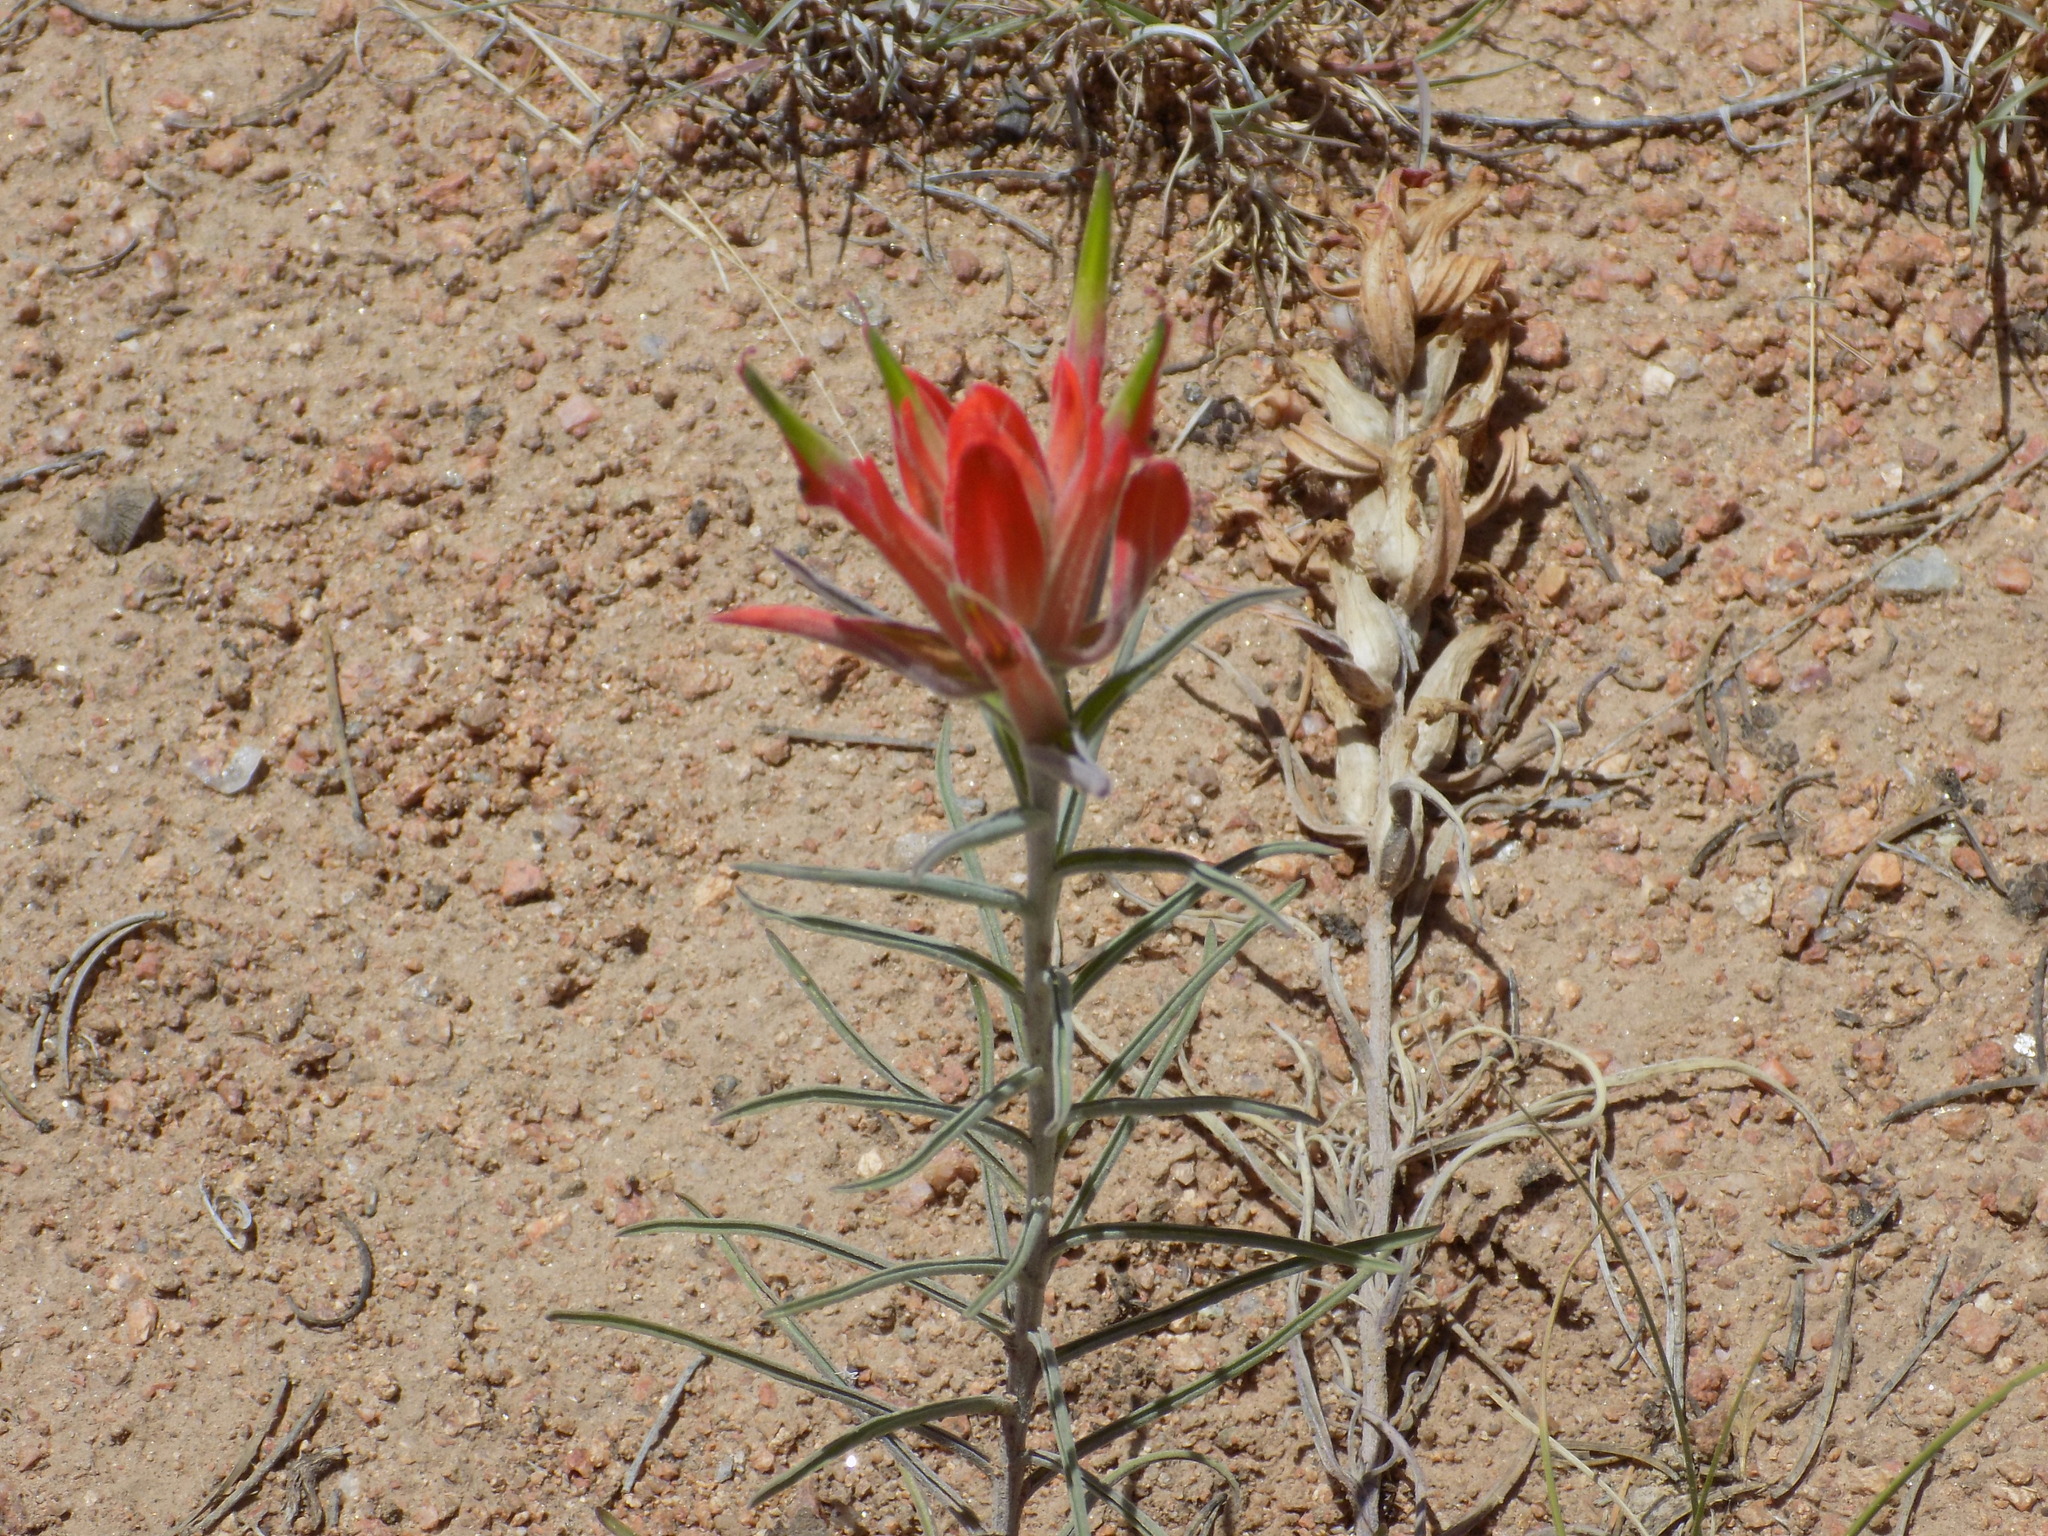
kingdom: Plantae
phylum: Tracheophyta
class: Magnoliopsida
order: Lamiales
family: Orobanchaceae
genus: Castilleja
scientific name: Castilleja integra
